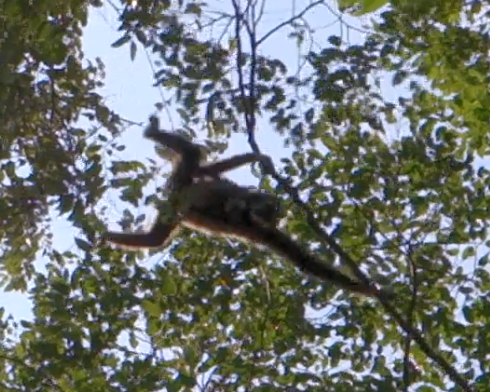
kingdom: Animalia
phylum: Chordata
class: Mammalia
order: Primates
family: Hylobatidae
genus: Hylobates
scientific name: Hylobates lar
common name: Lar gibbon
